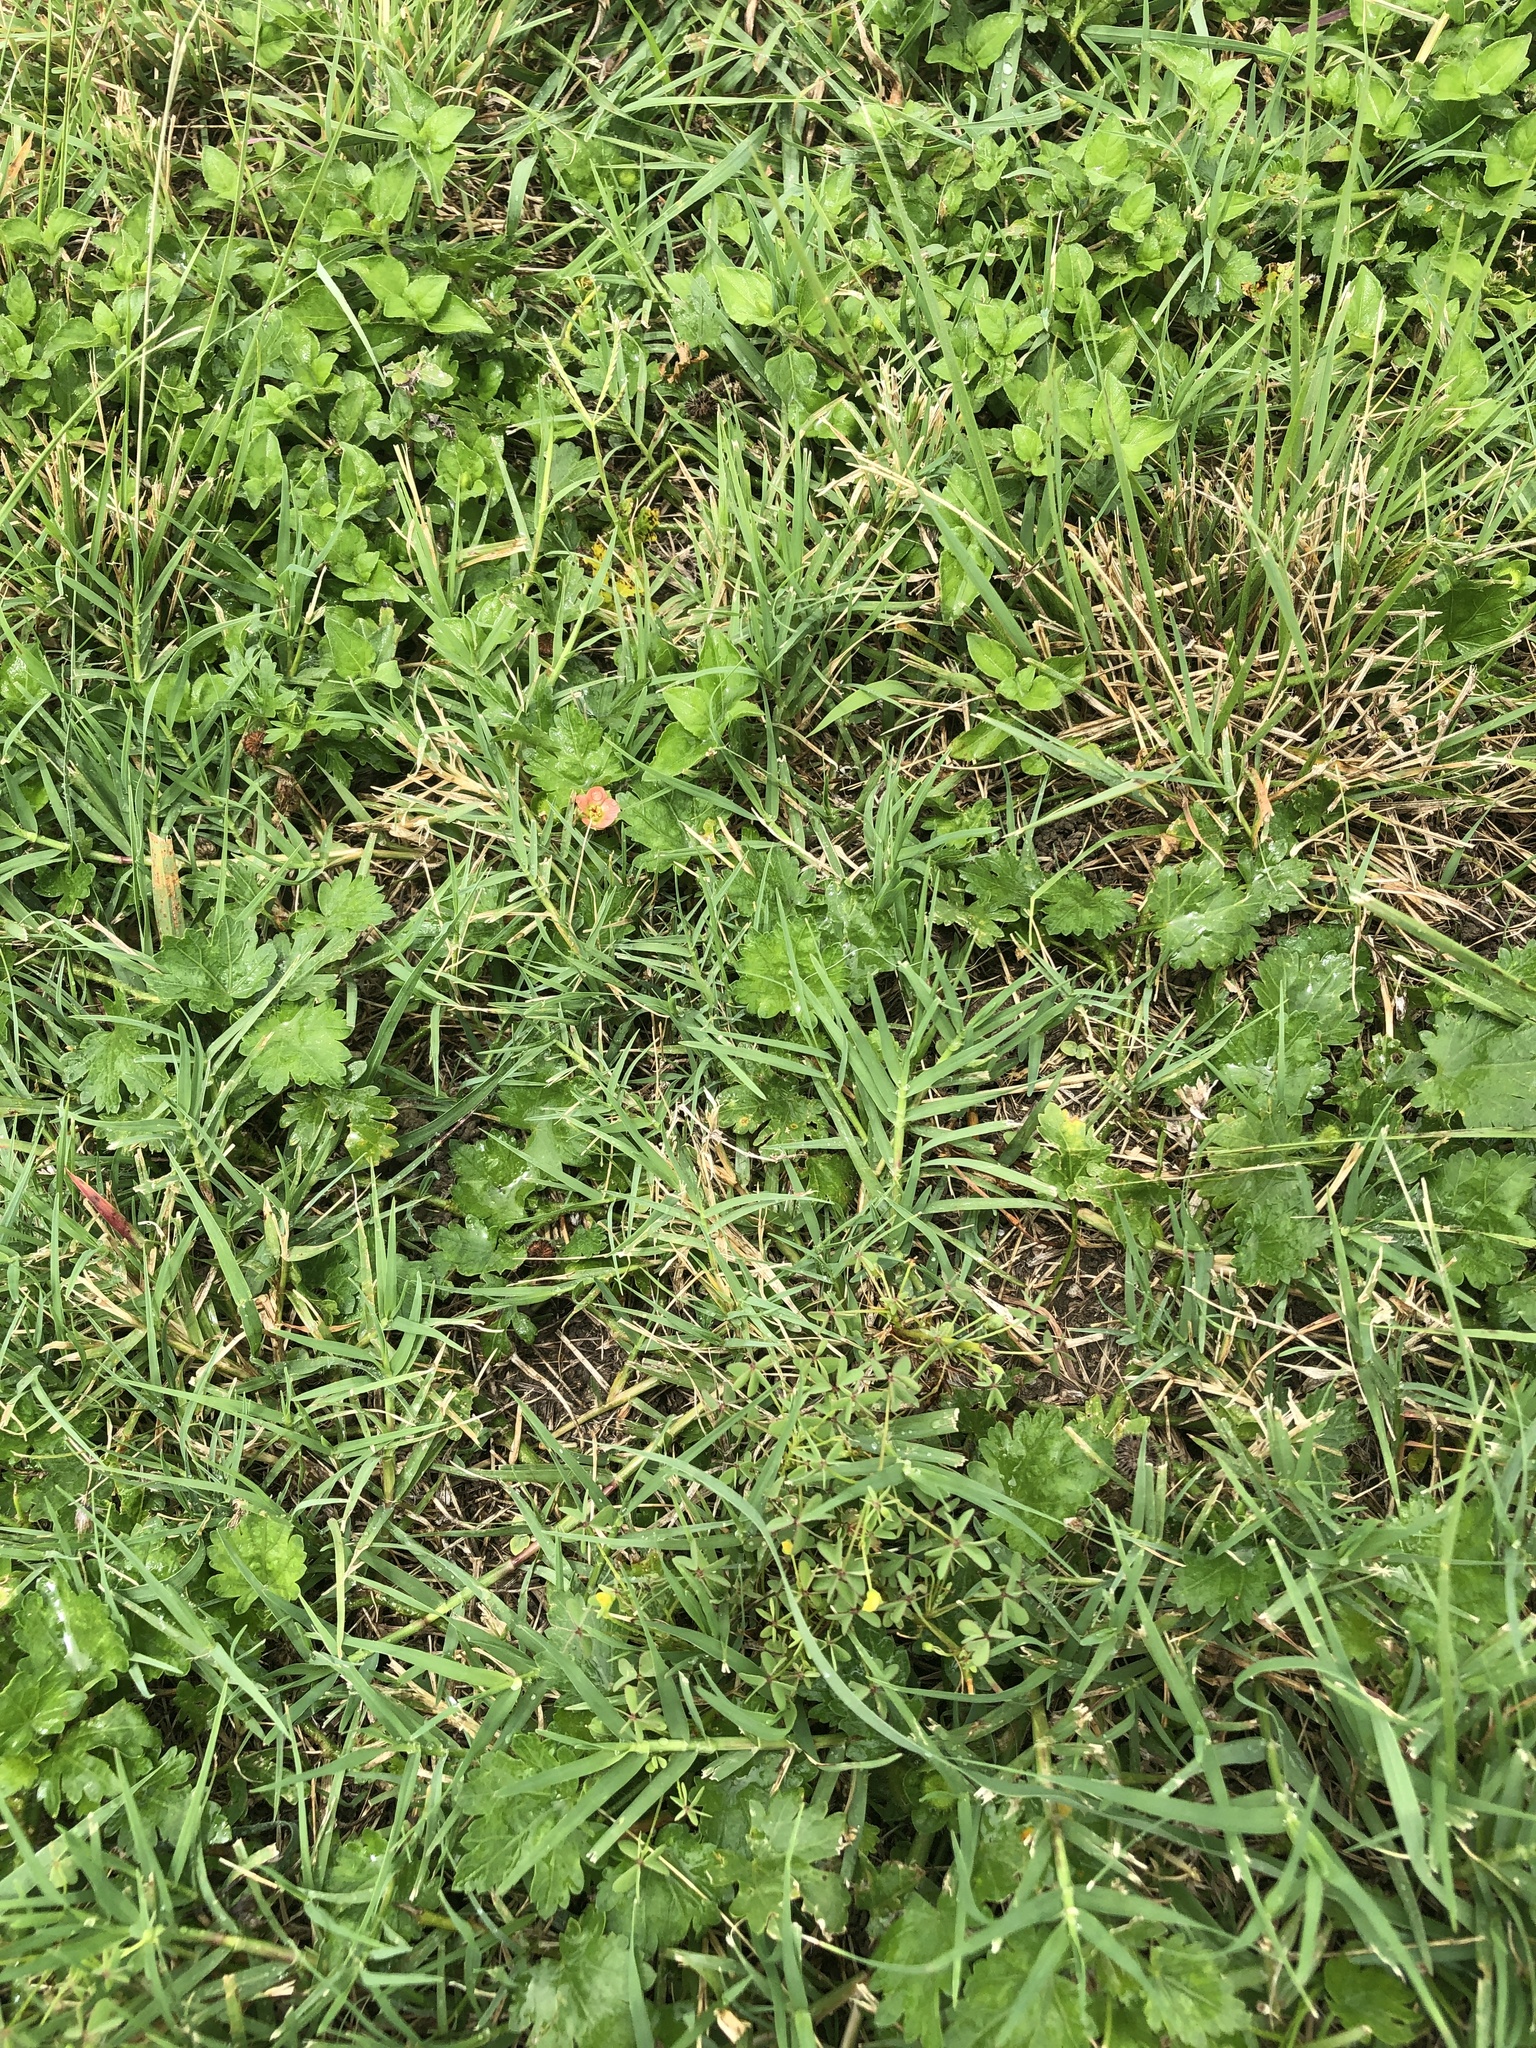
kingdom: Plantae
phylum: Tracheophyta
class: Magnoliopsida
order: Malvales
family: Malvaceae
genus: Modiola
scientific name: Modiola caroliniana
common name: Carolina bristlemallow
